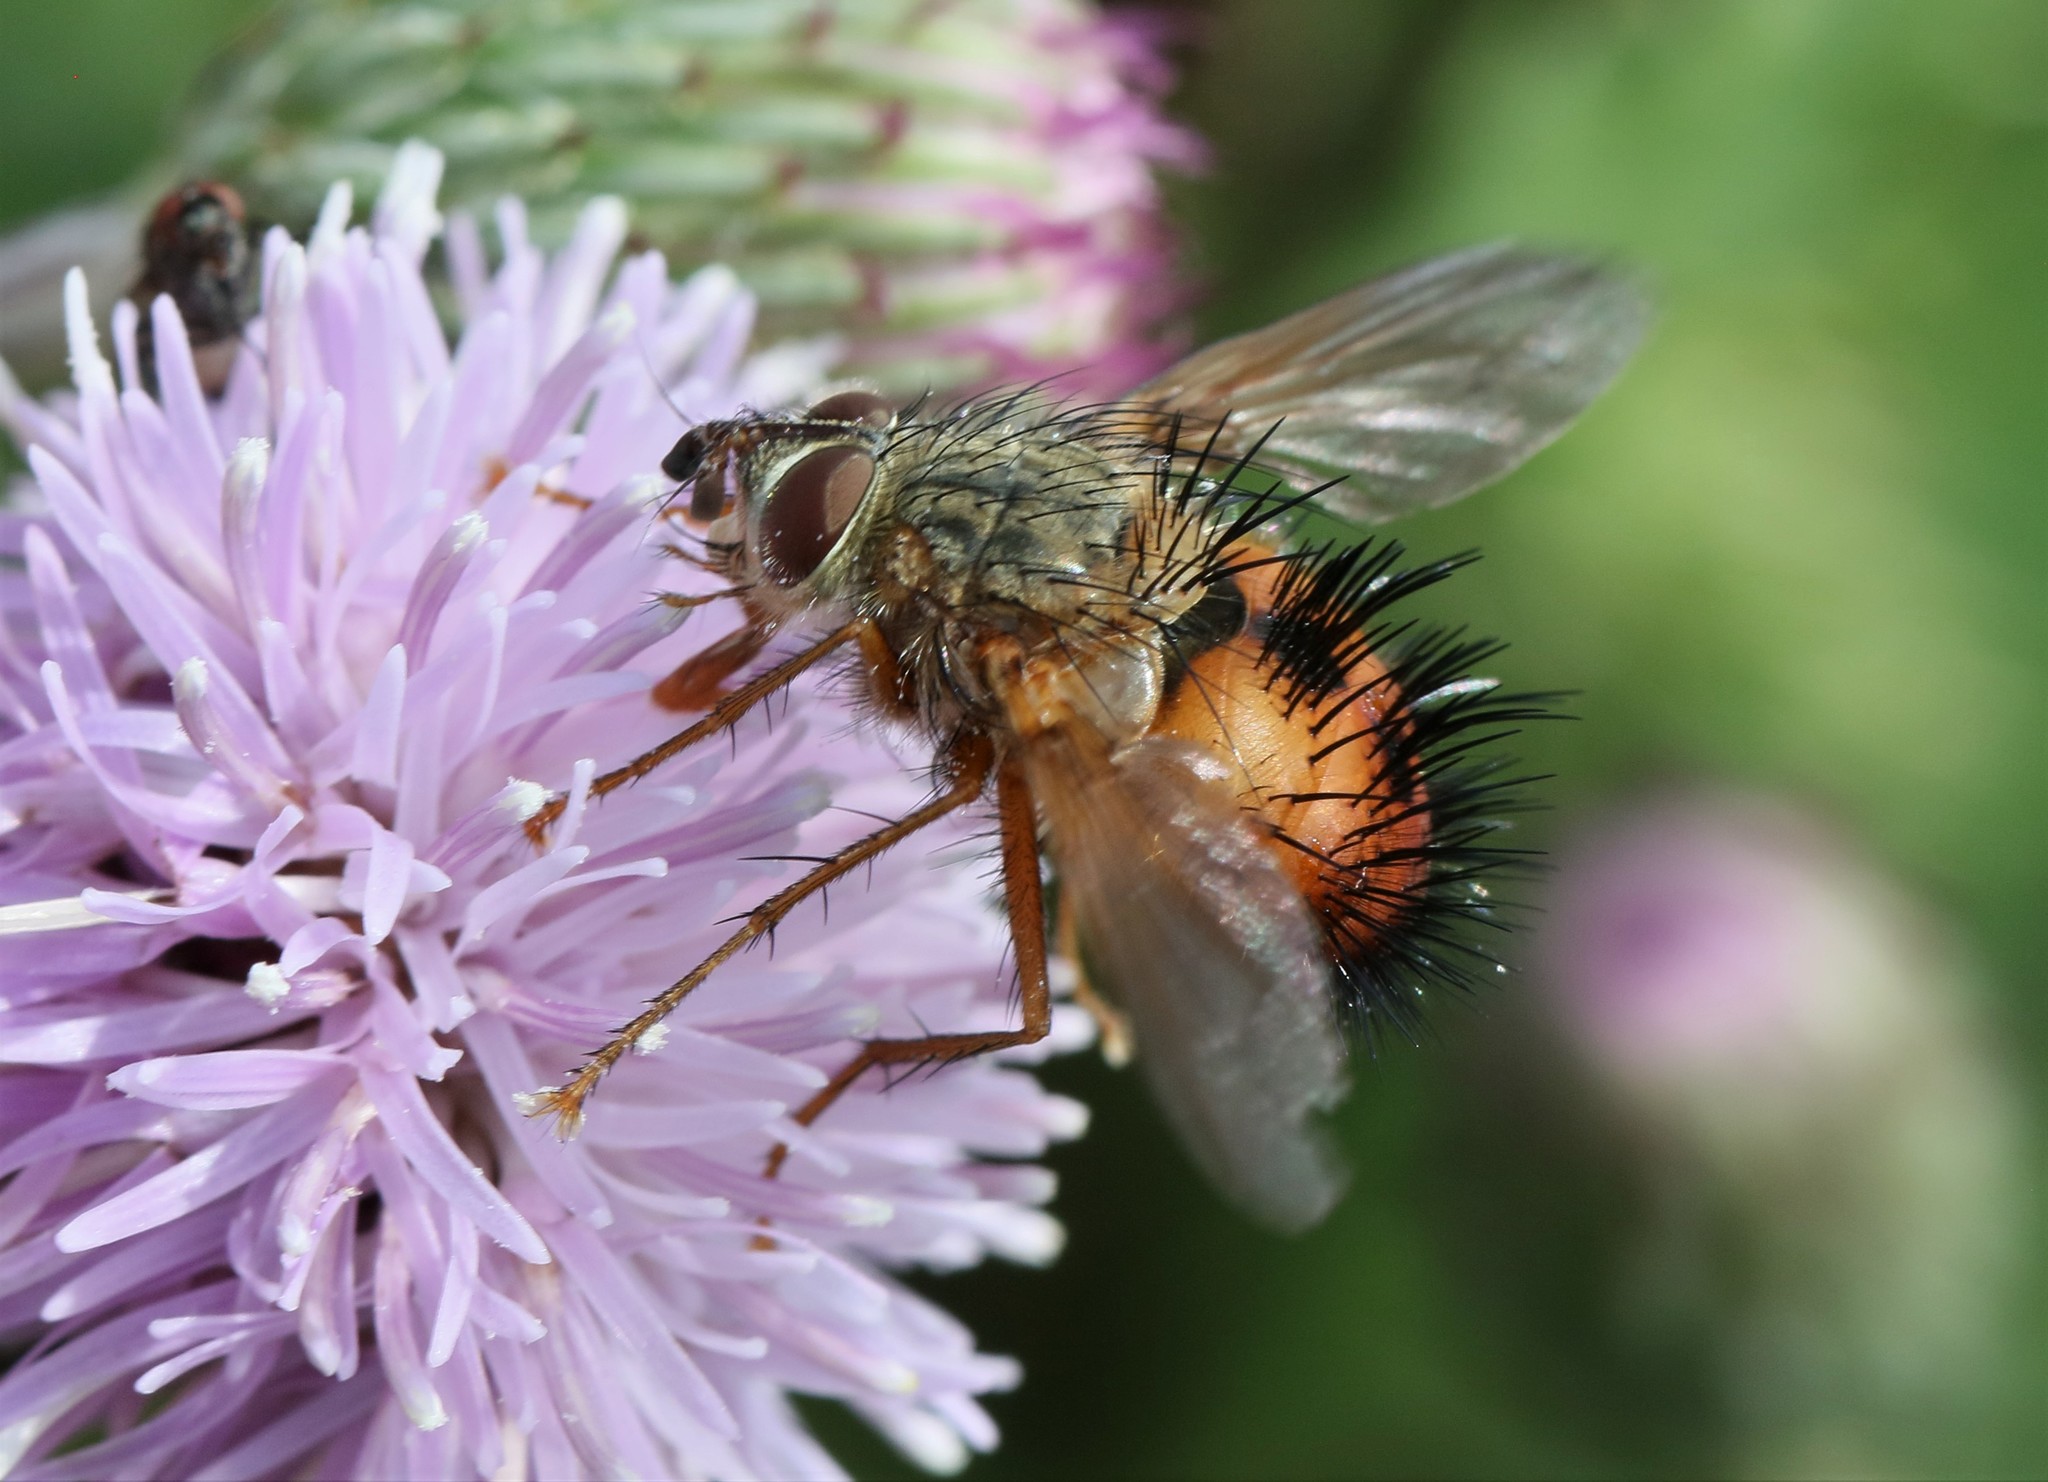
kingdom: Animalia
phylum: Arthropoda
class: Insecta
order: Diptera
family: Tachinidae
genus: Hystricia
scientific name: Hystricia abrupta
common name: Tomato bristle fly
